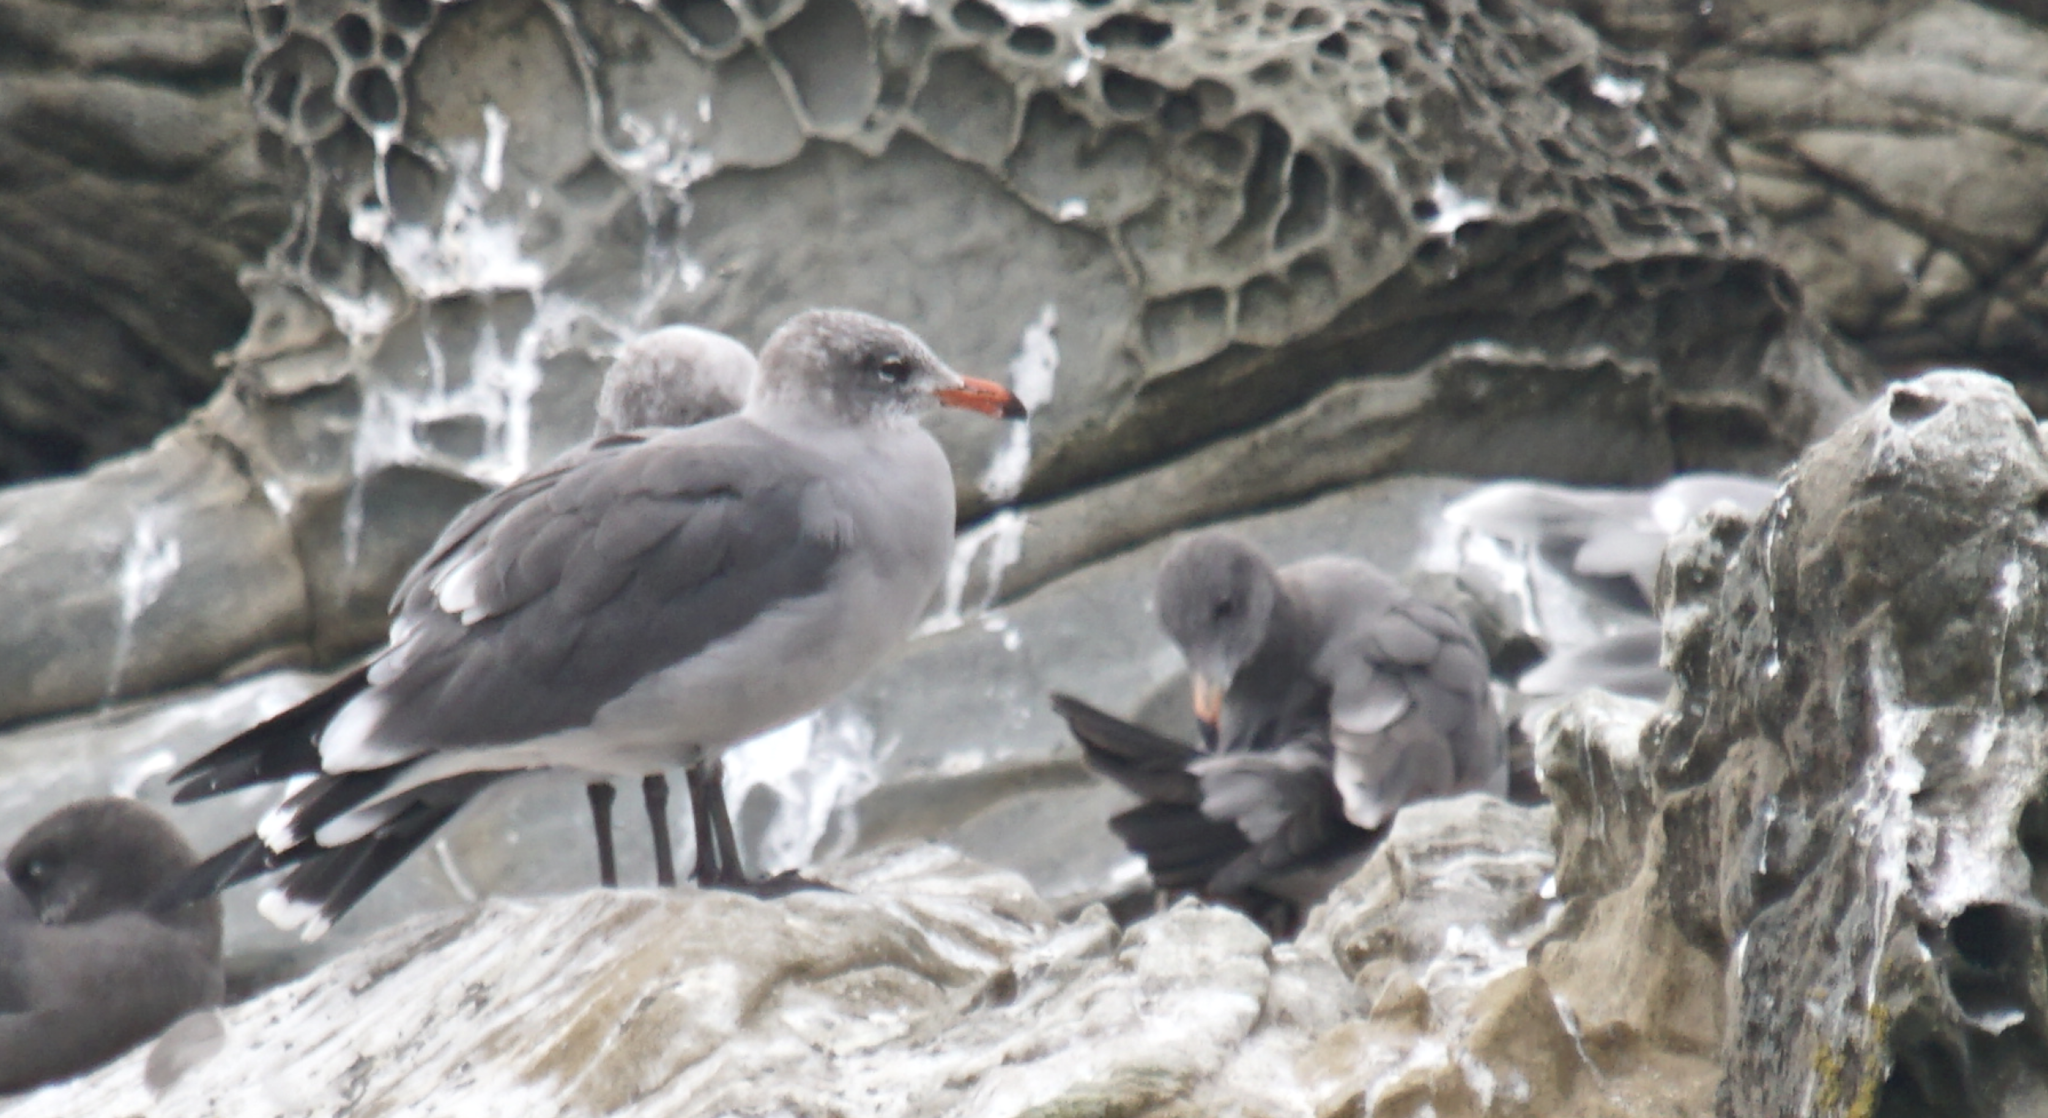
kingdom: Animalia
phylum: Chordata
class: Aves
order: Charadriiformes
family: Laridae
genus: Larus
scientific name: Larus heermanni
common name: Heermann's gull
